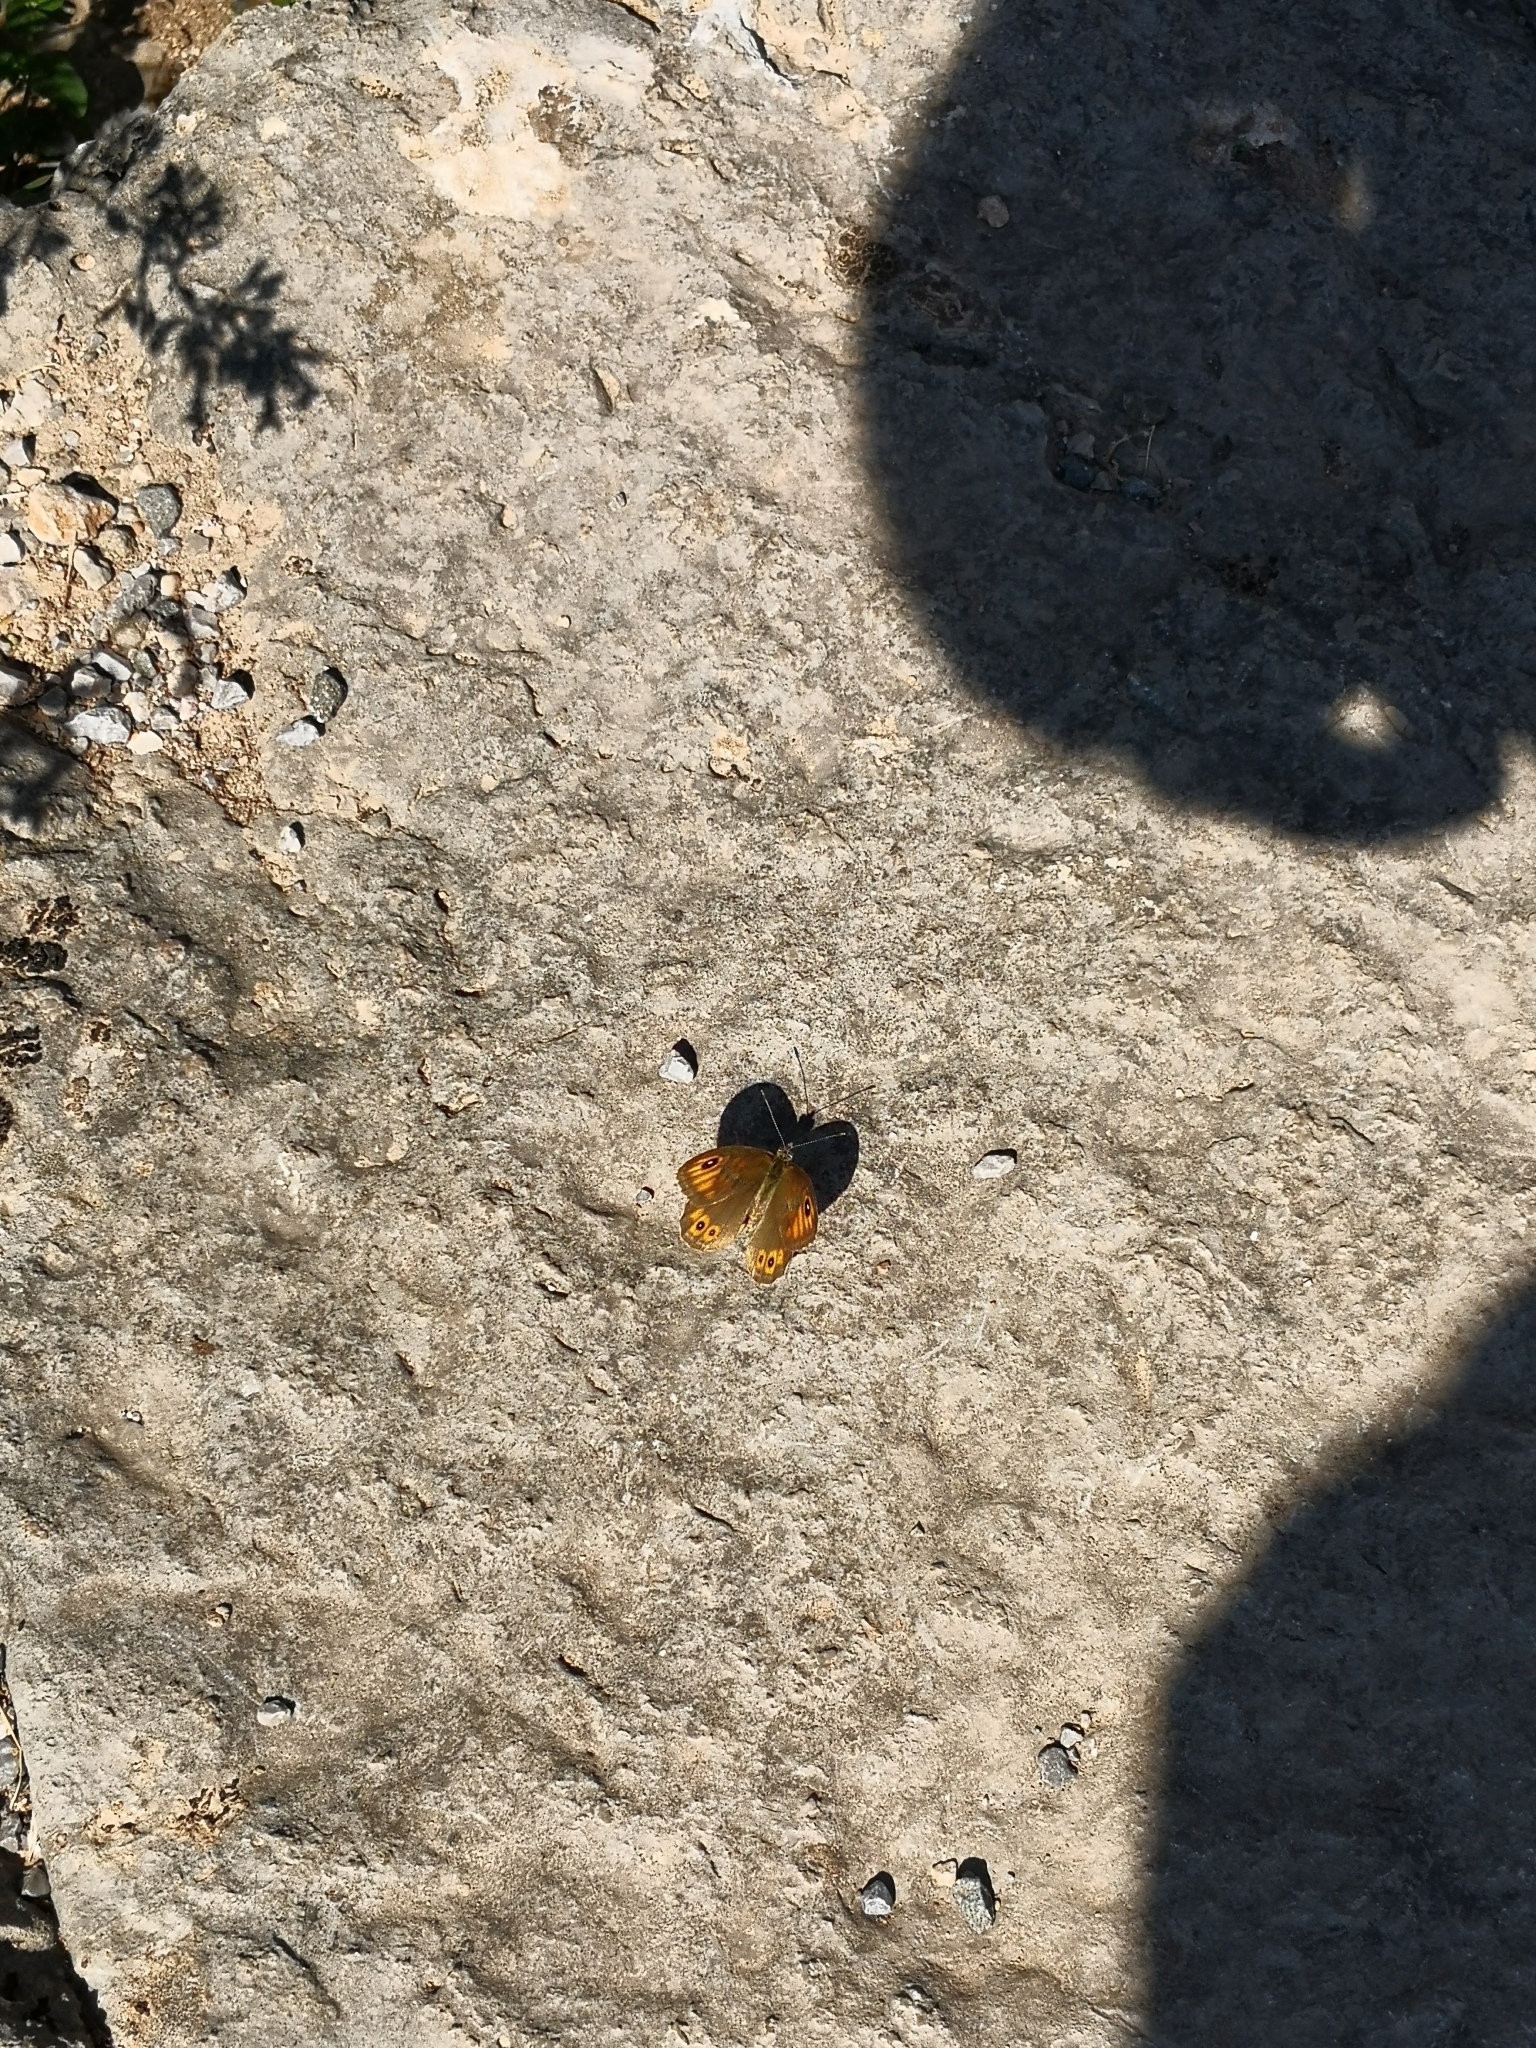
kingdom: Animalia
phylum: Arthropoda
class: Insecta
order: Lepidoptera
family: Nymphalidae
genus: Pararge
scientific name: Pararge Lasiommata maera
